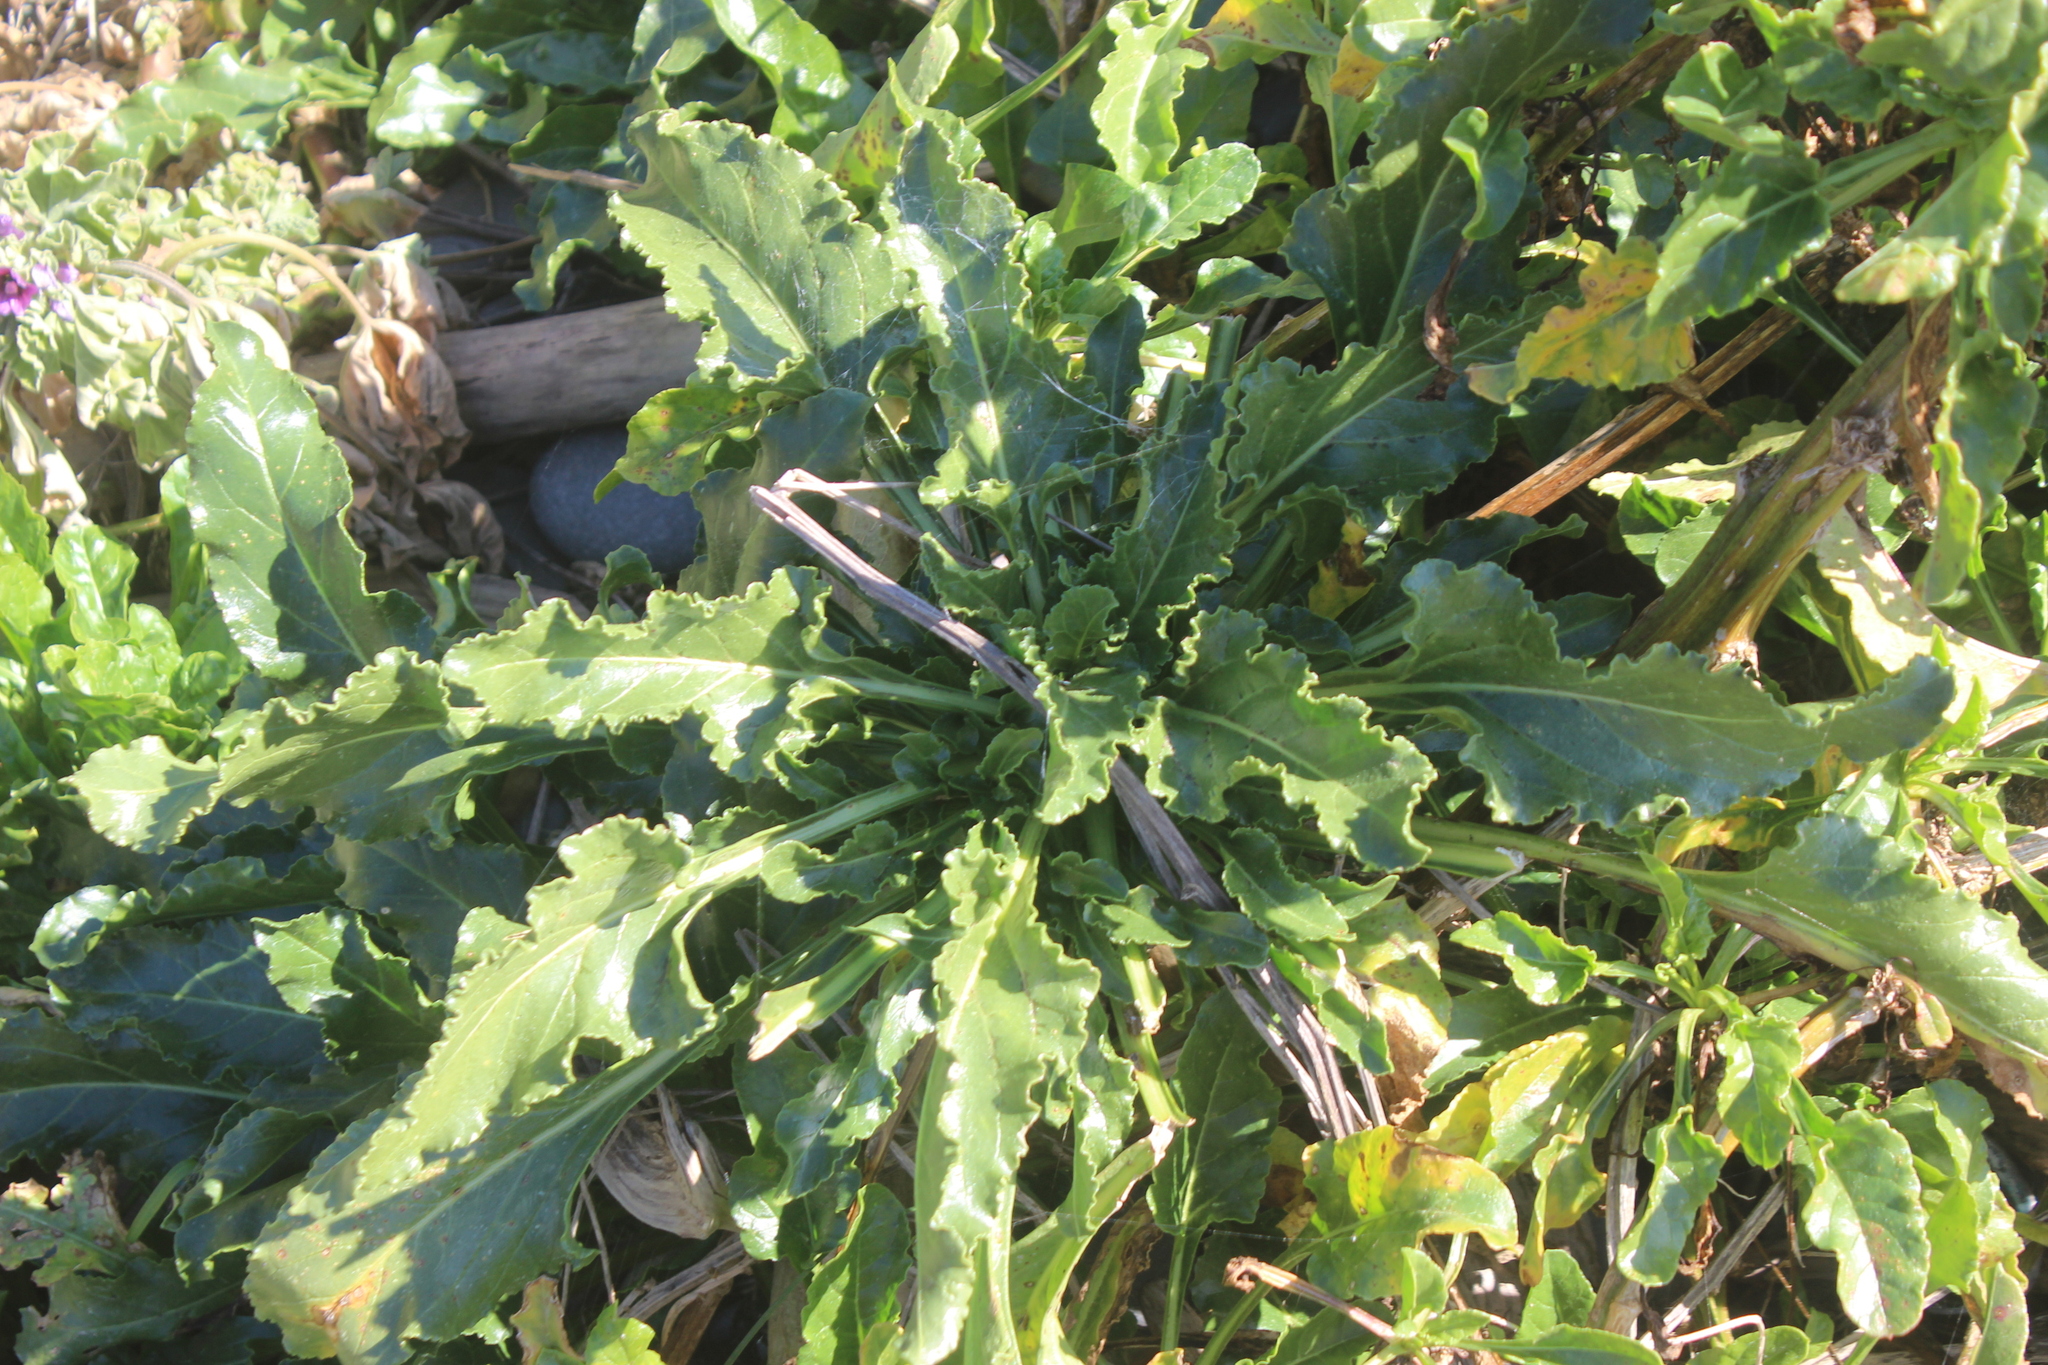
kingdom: Plantae
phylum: Tracheophyta
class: Magnoliopsida
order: Caryophyllales
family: Amaranthaceae
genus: Beta
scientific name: Beta vulgaris
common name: Beet
